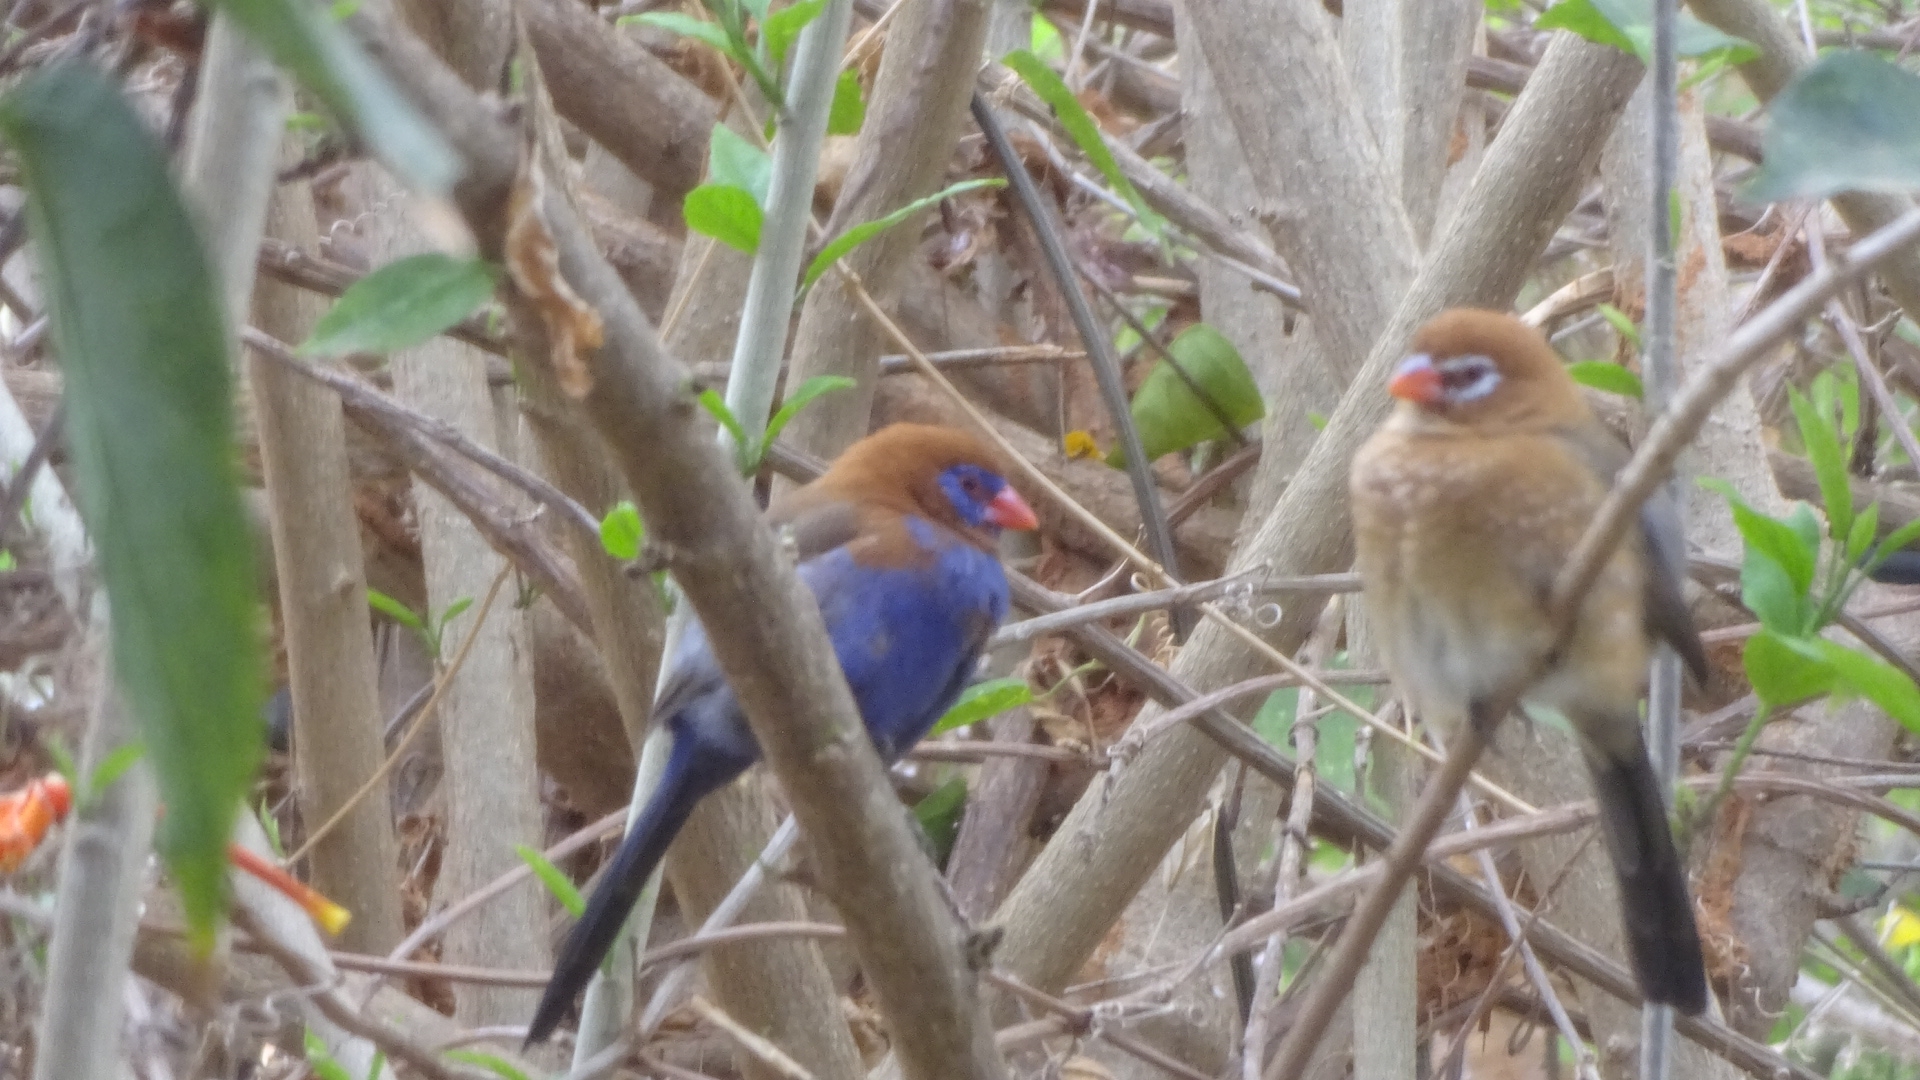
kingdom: Animalia
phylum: Chordata
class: Aves
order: Passeriformes
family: Estrildidae
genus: Uraeginthus
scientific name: Uraeginthus ianthinogaster
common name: Purple grenadier
